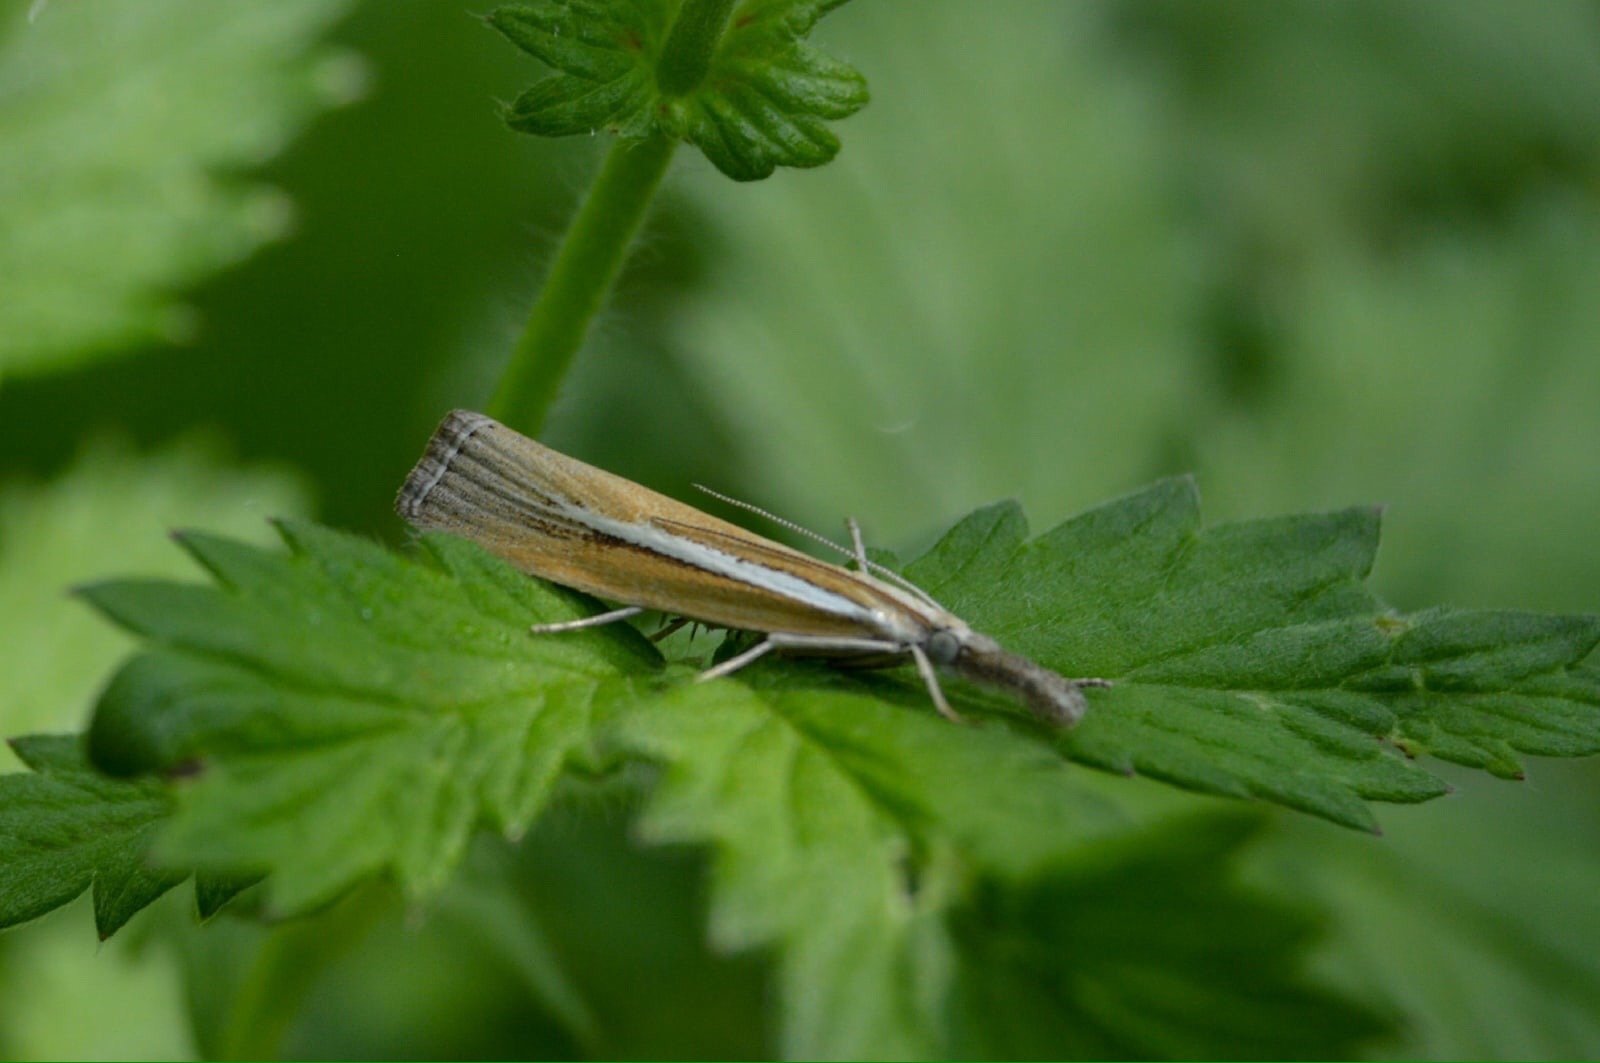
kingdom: Animalia
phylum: Arthropoda
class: Insecta
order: Lepidoptera
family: Crambidae
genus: Agriphila
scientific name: Agriphila tristellus
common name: Common grass-veneer
